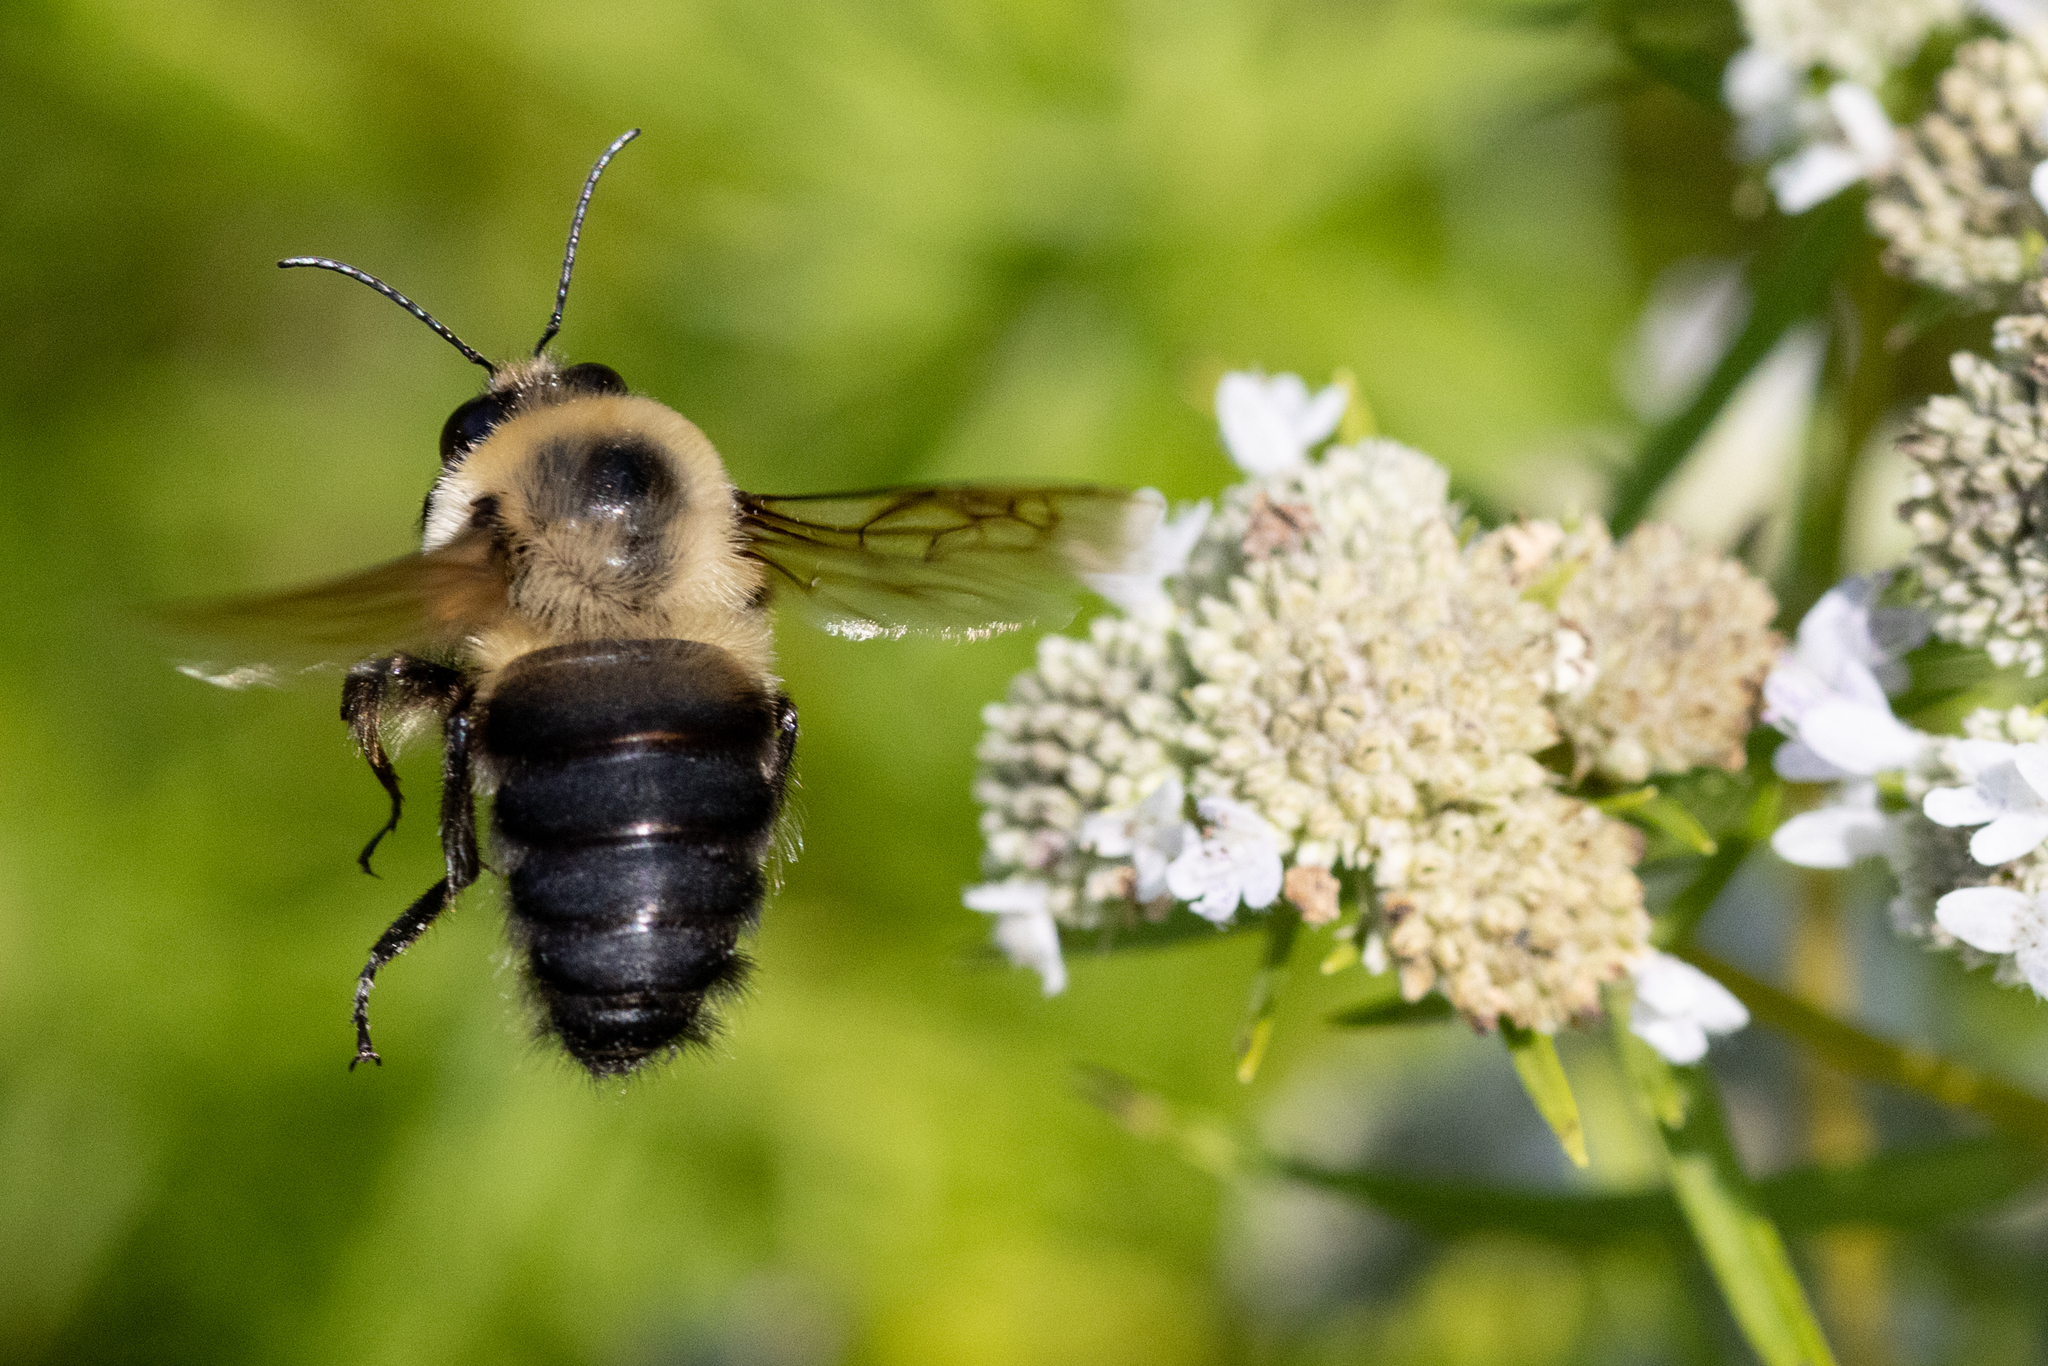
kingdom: Animalia
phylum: Arthropoda
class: Insecta
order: Hymenoptera
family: Apidae
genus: Bombus
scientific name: Bombus griseocollis
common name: Brown-belted bumble bee
